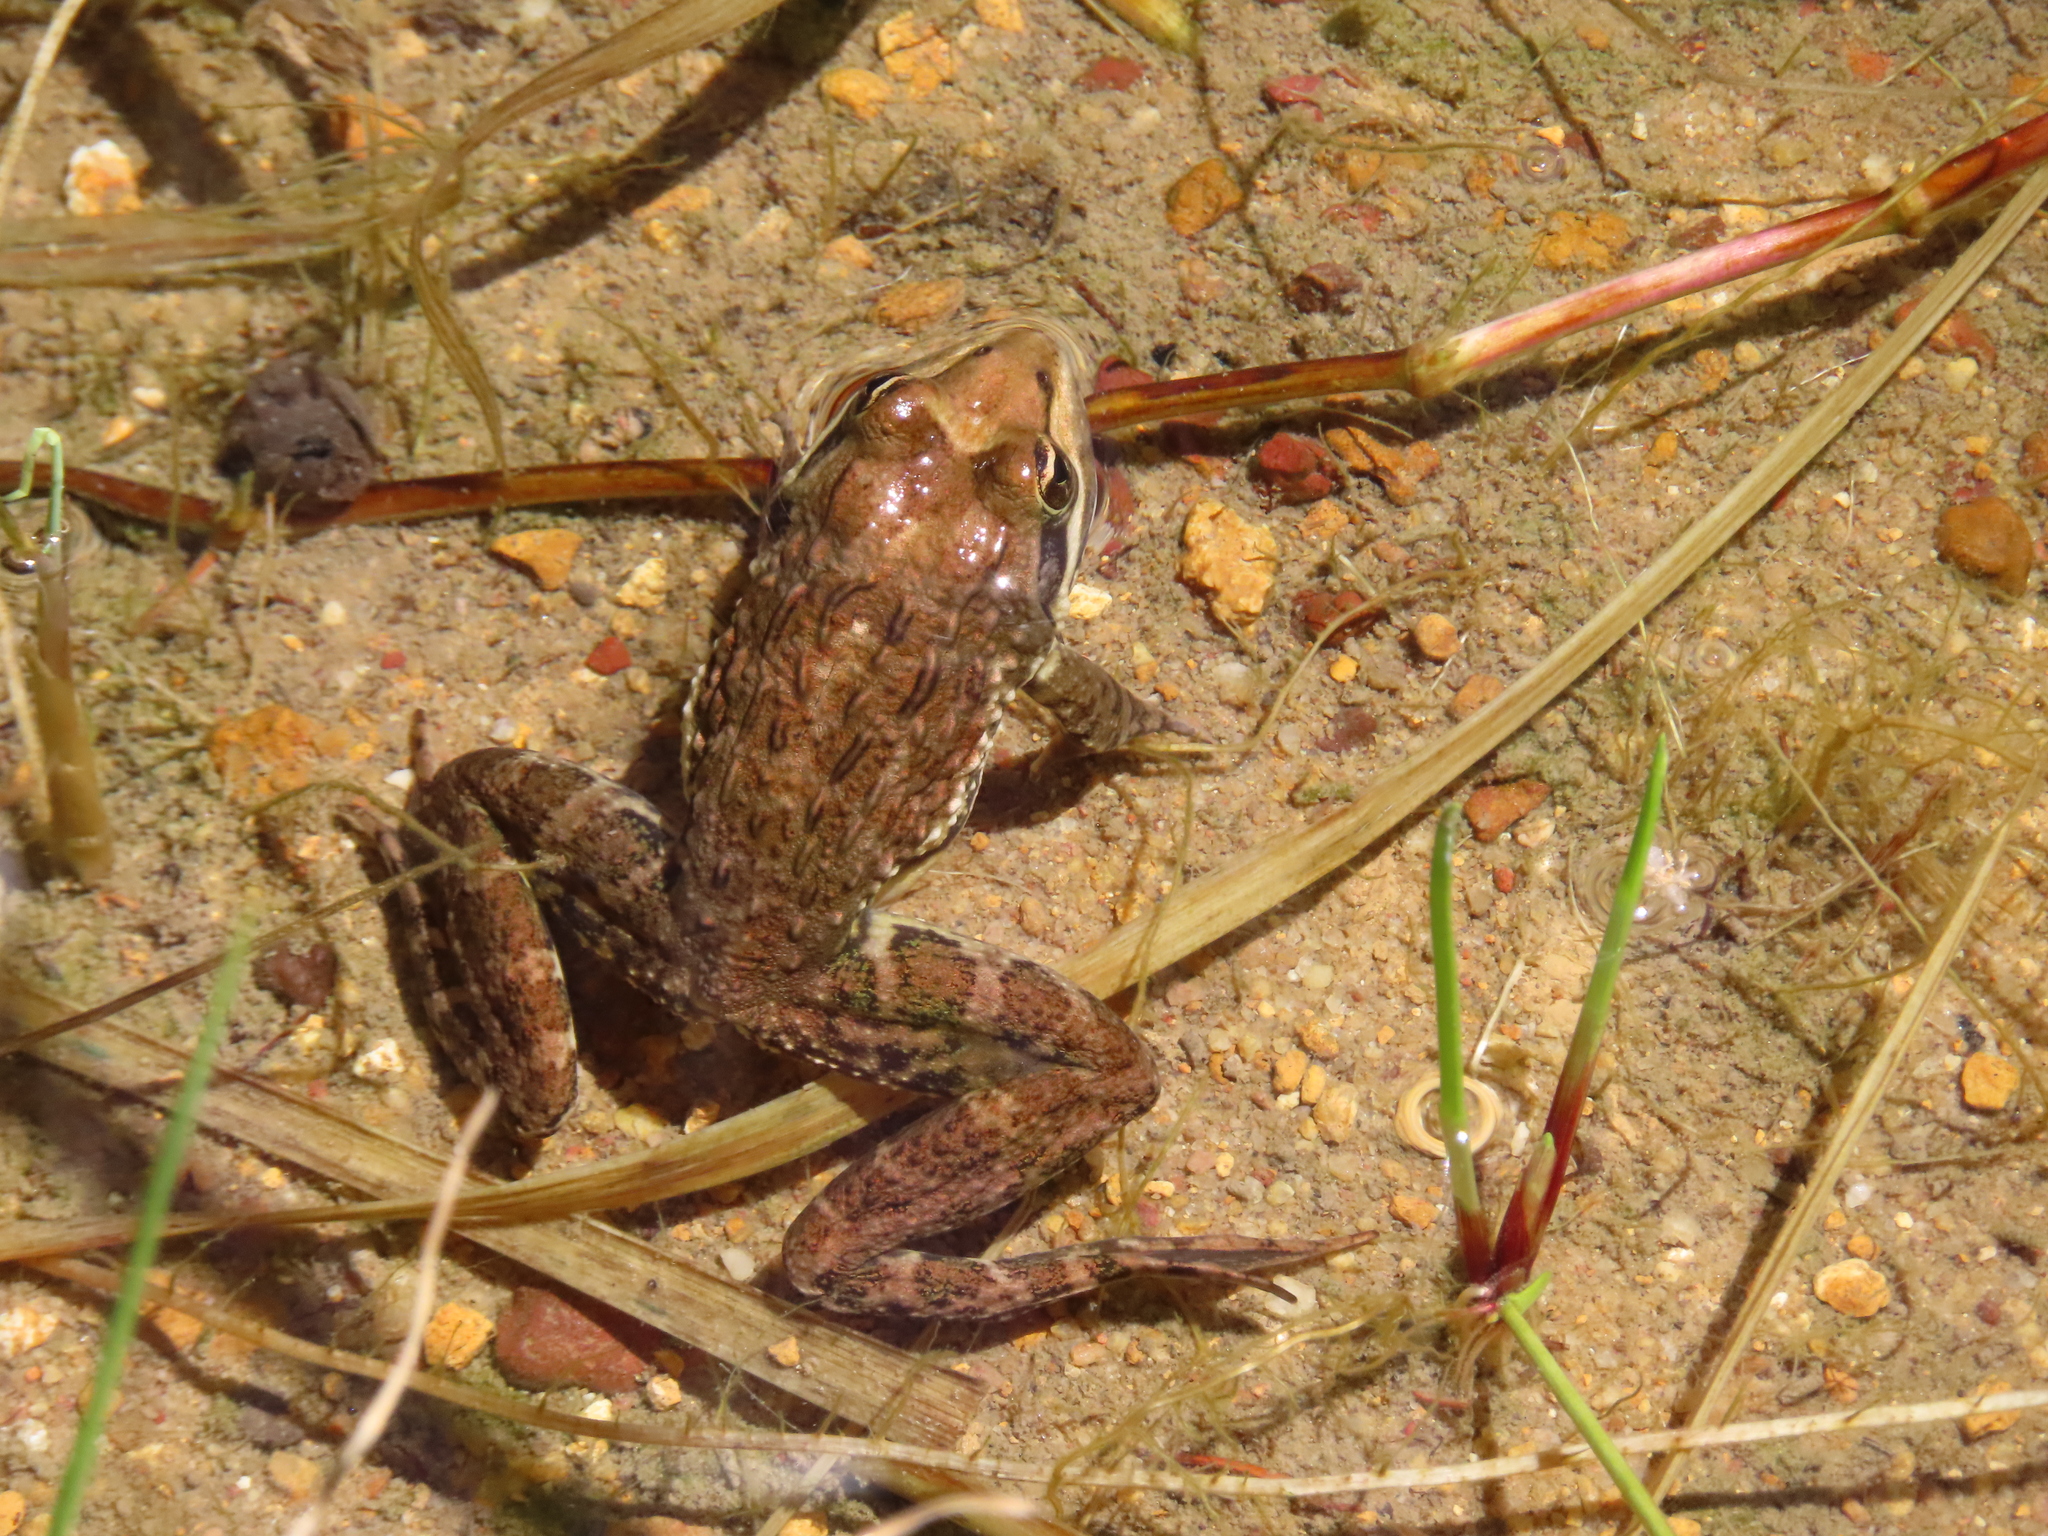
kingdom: Animalia
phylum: Chordata
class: Amphibia
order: Anura
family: Pyxicephalidae
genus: Amietia
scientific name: Amietia fuscigula
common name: Cape rana
